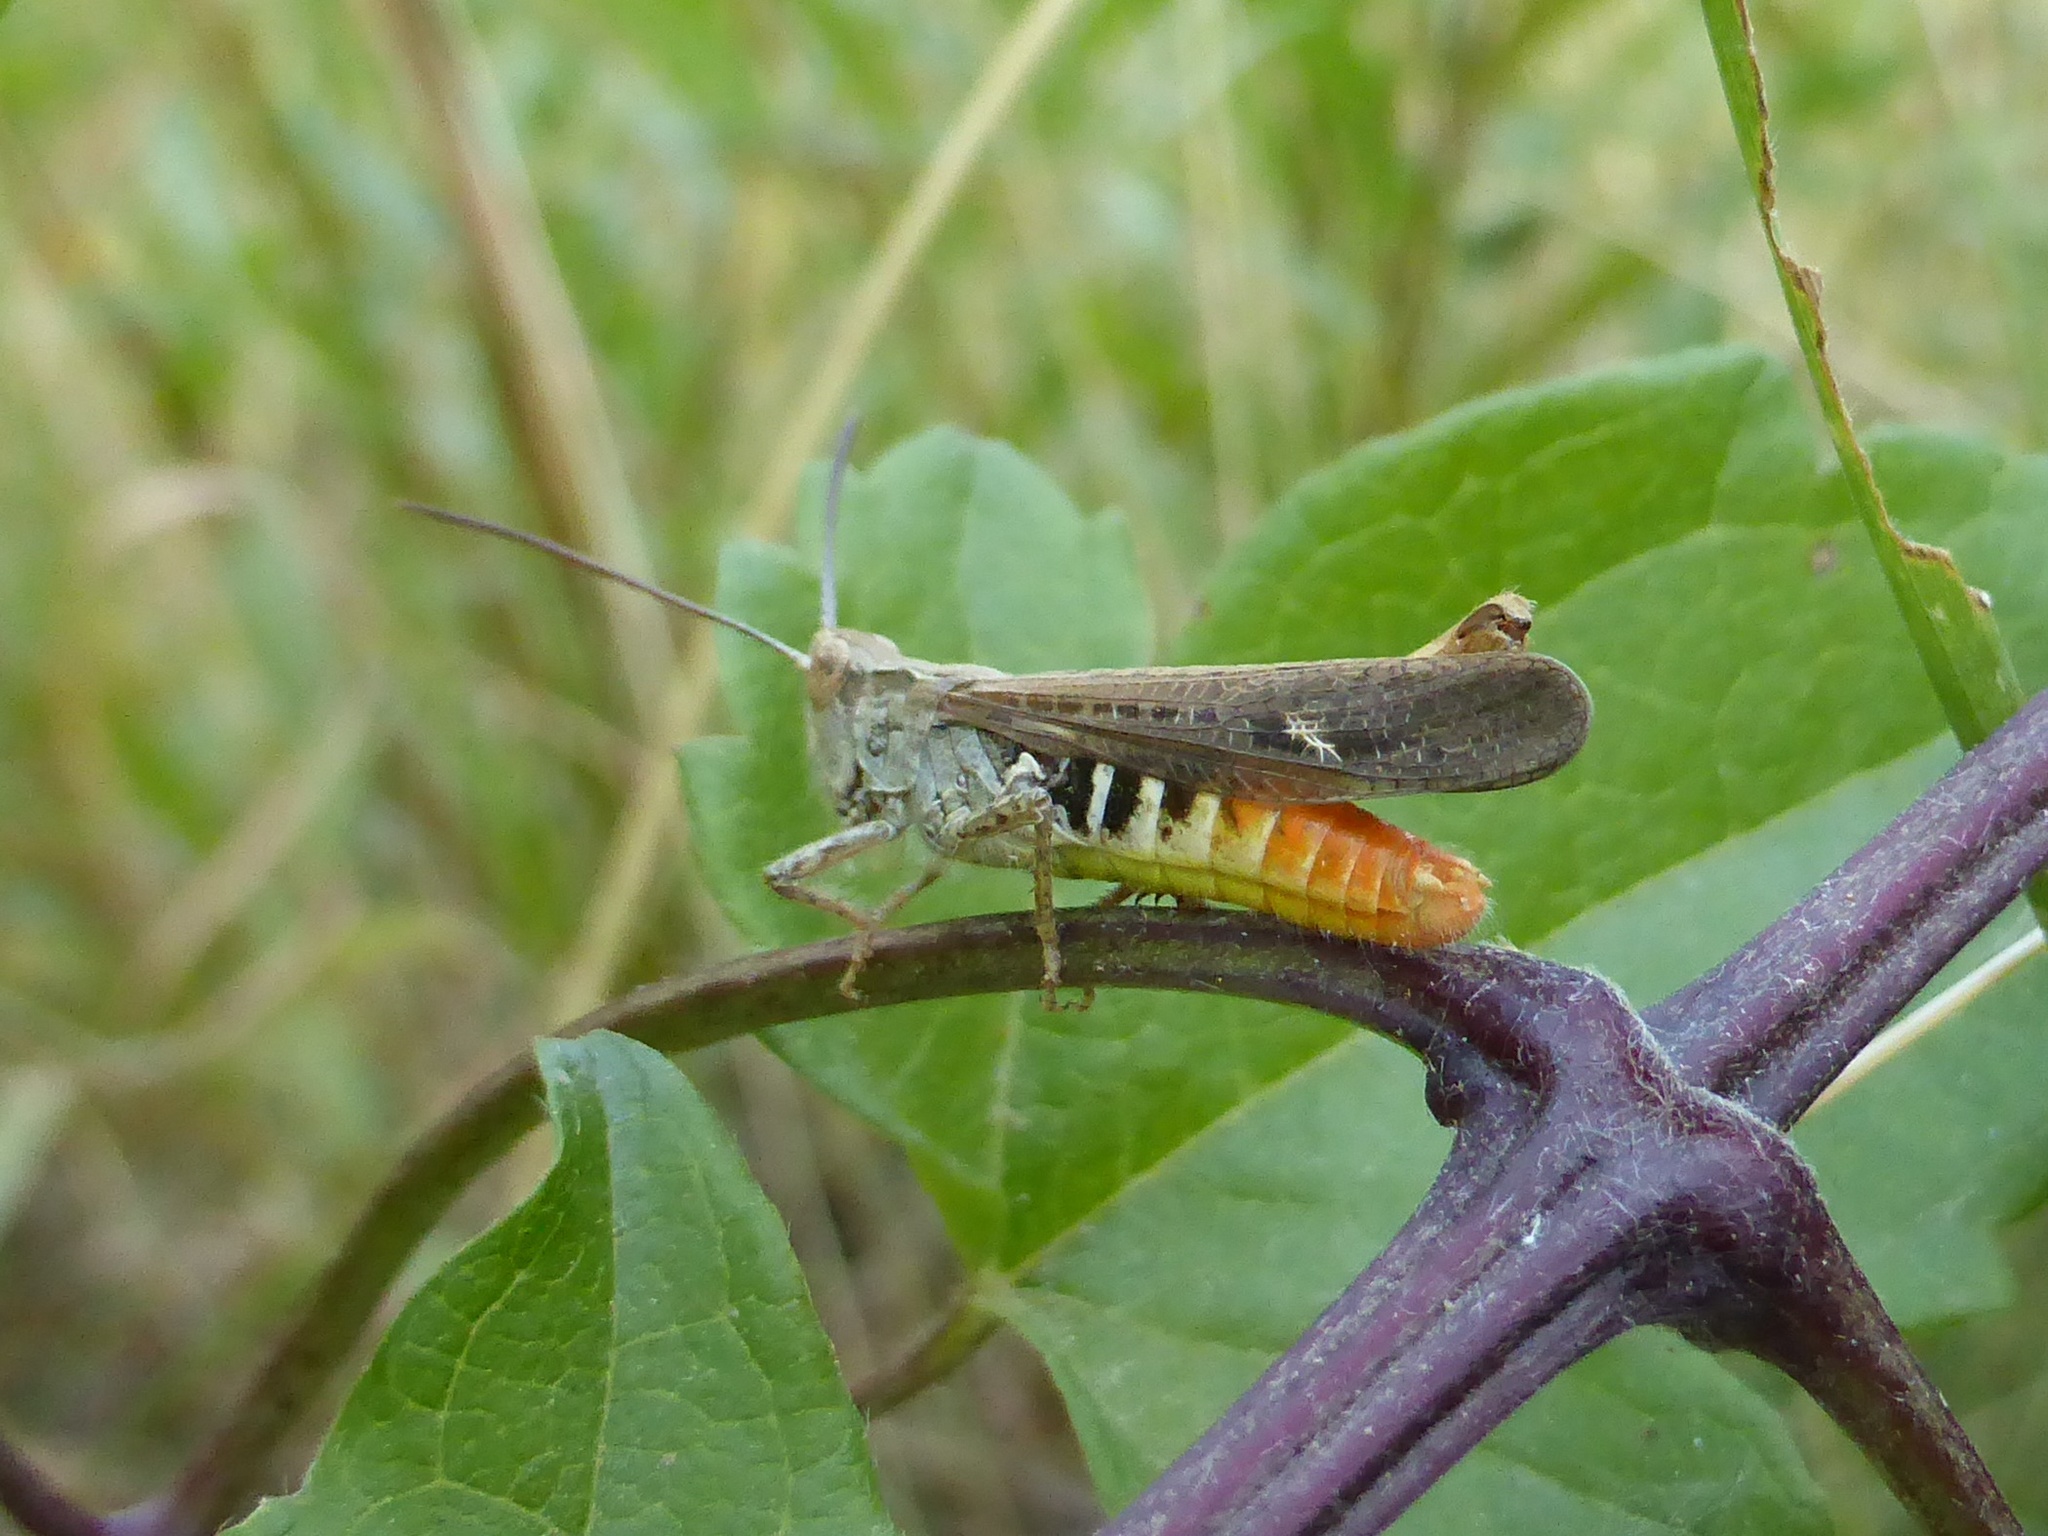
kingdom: Animalia
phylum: Arthropoda
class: Insecta
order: Orthoptera
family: Acrididae
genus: Chorthippus
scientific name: Chorthippus brunneus
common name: Field grasshopper
